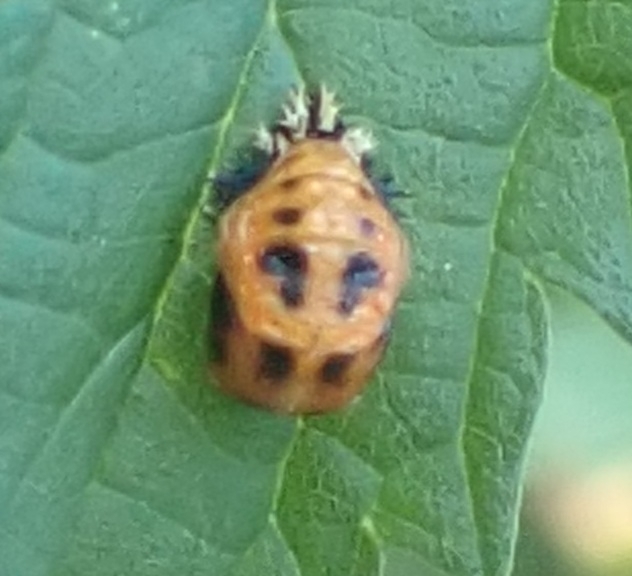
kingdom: Animalia
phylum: Arthropoda
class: Insecta
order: Coleoptera
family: Coccinellidae
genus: Harmonia
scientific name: Harmonia axyridis
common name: Harlequin ladybird
